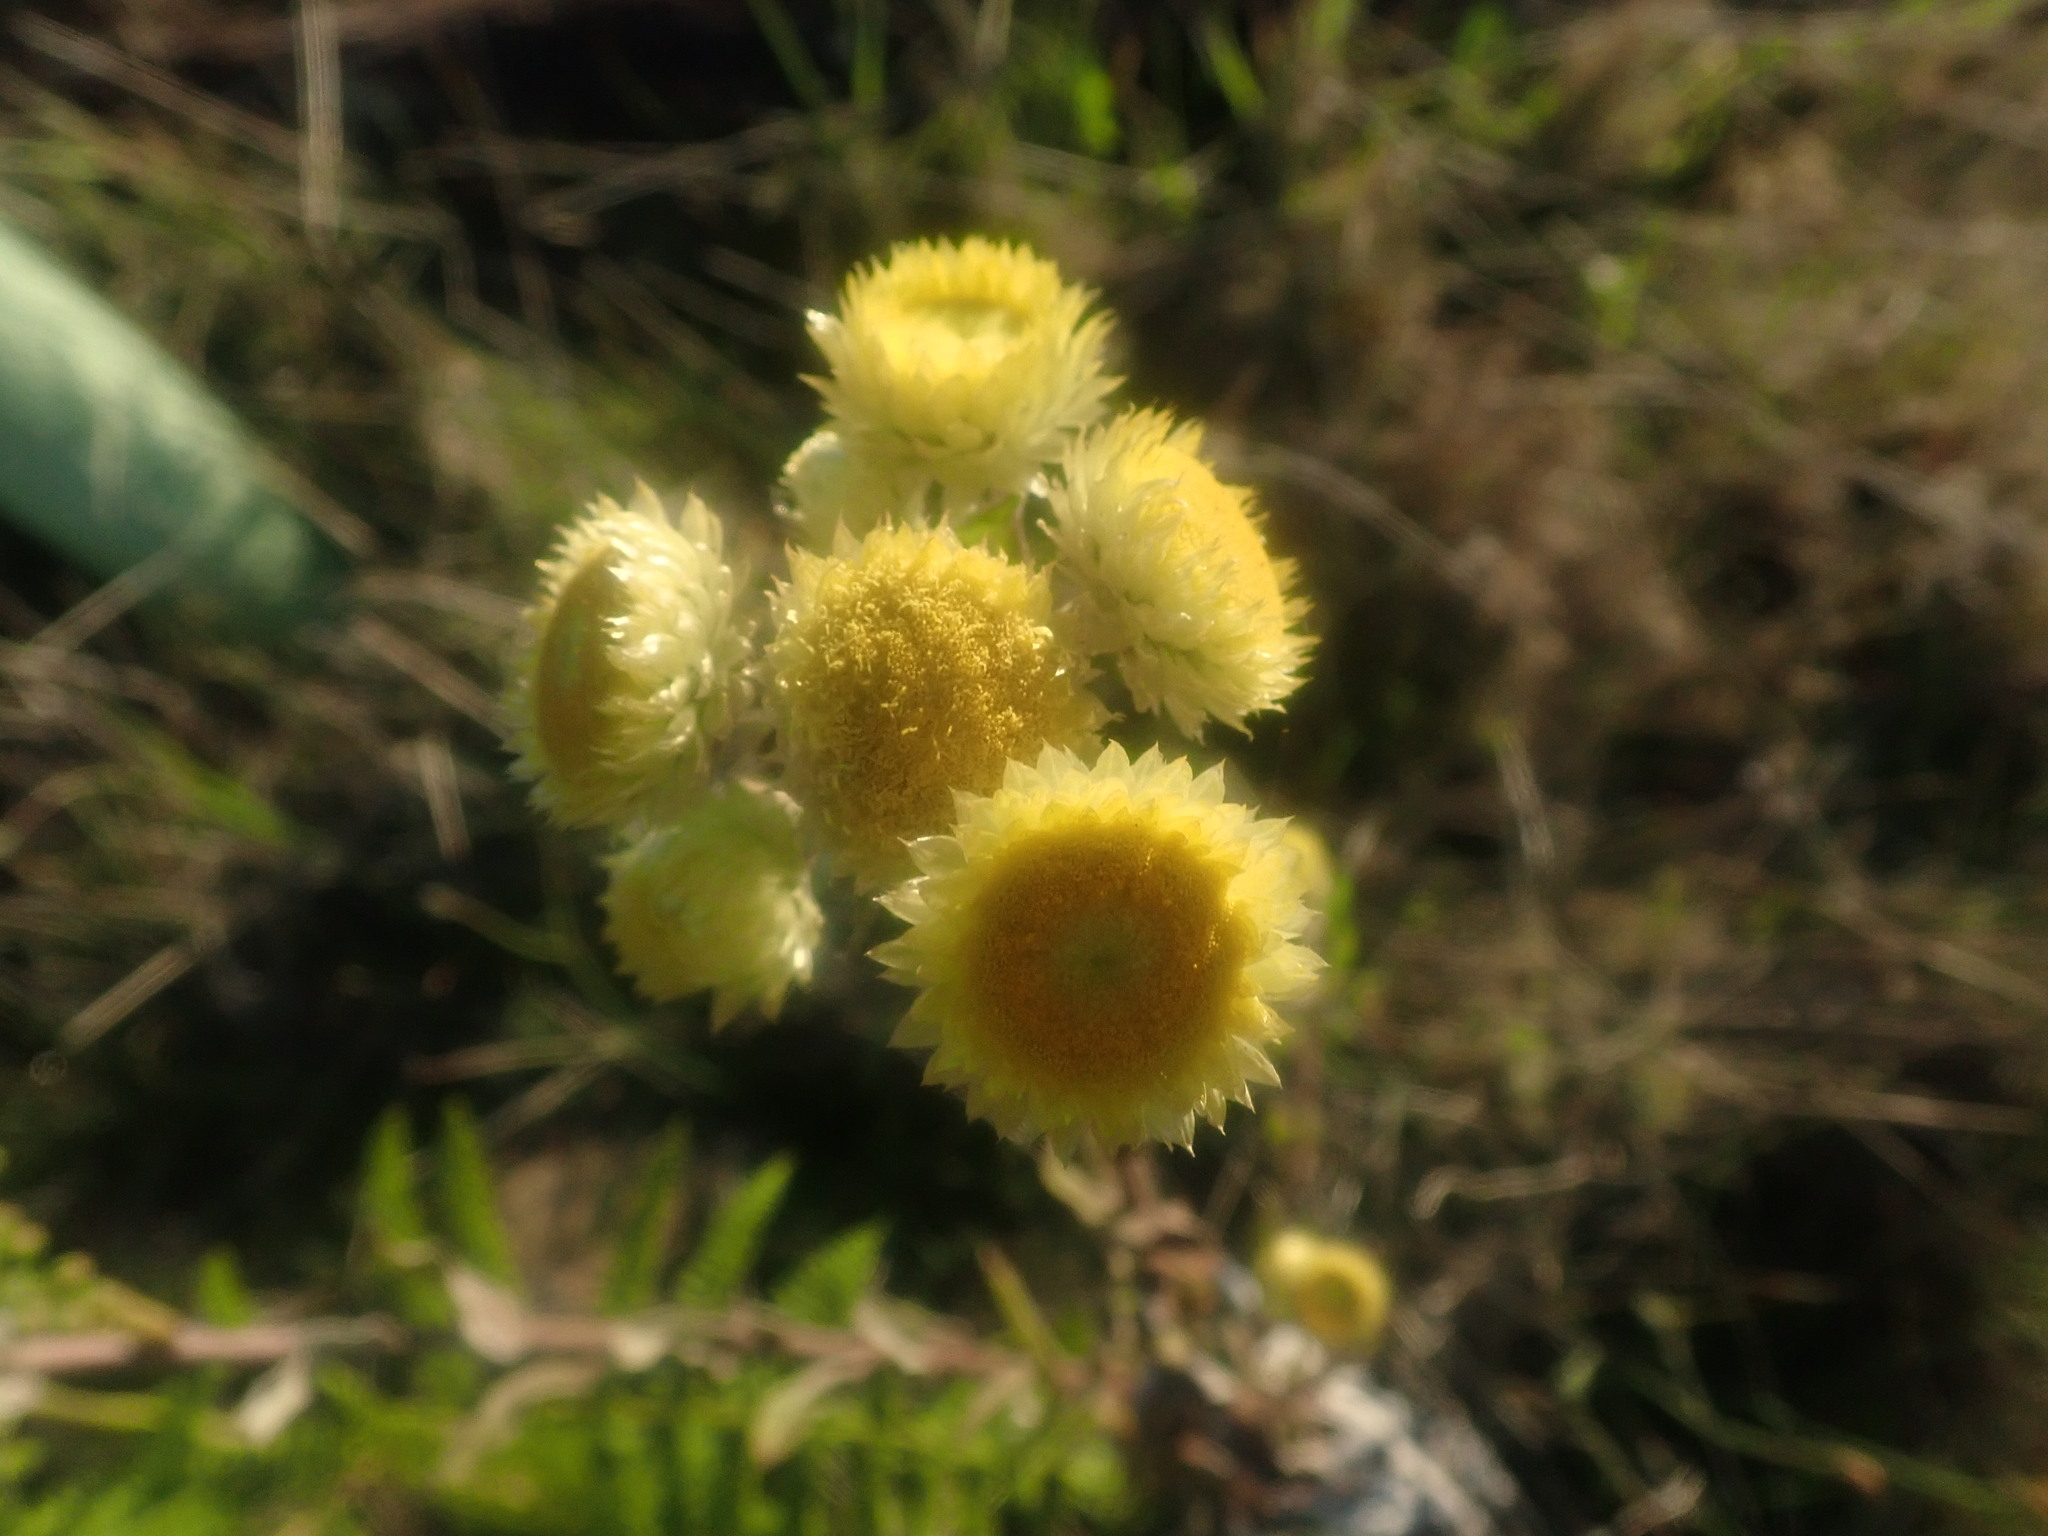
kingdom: Plantae
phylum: Tracheophyta
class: Magnoliopsida
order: Asterales
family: Asteraceae
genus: Helichrysum
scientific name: Helichrysum foetidum
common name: Stinking everlasting
